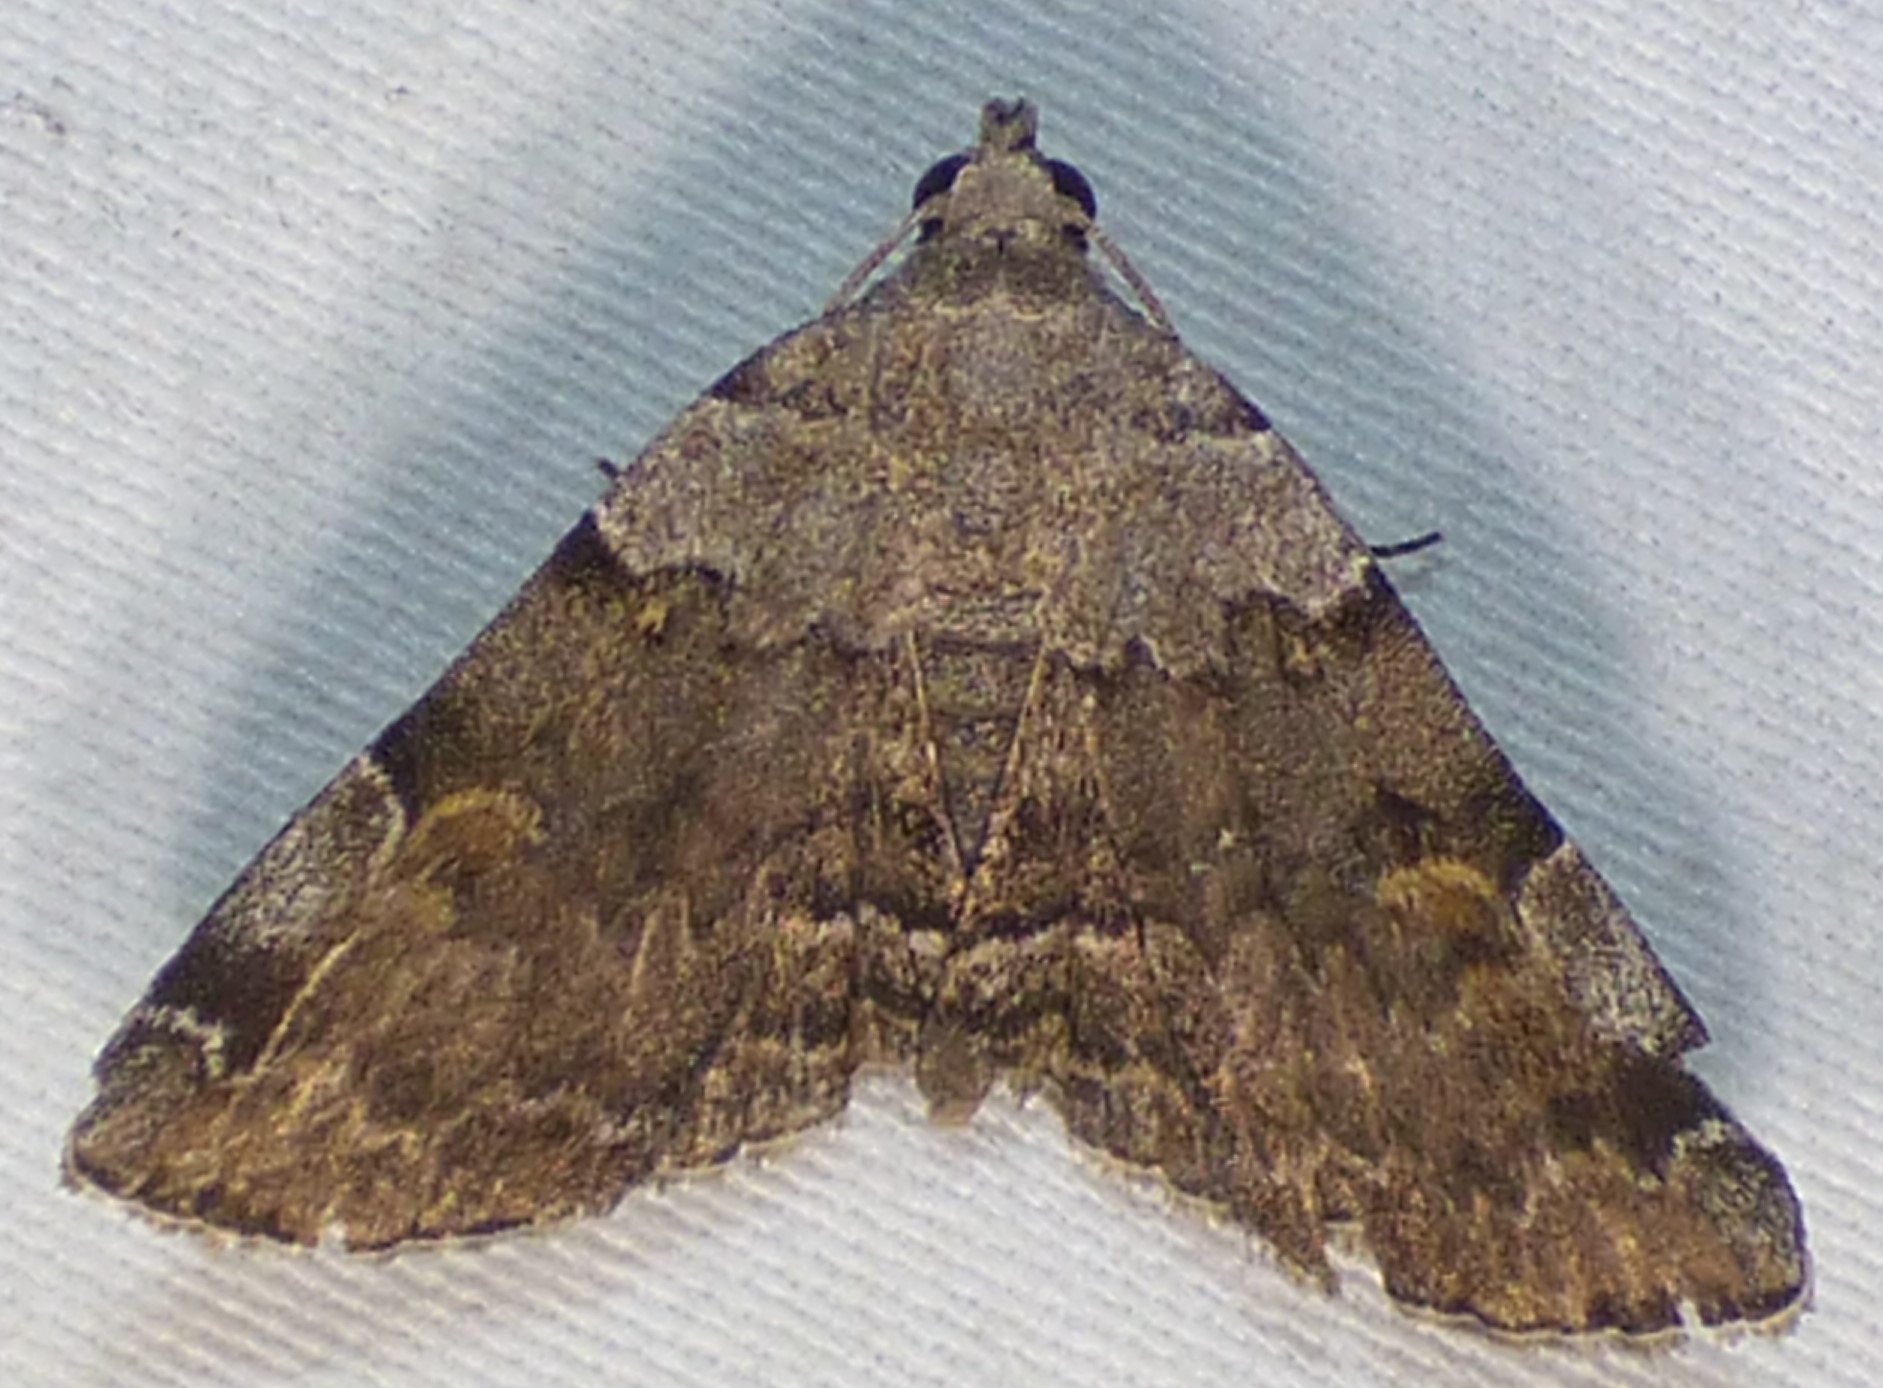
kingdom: Animalia
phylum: Arthropoda
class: Insecta
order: Lepidoptera
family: Erebidae
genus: Idia
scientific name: Idia americalis
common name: American idia moth
